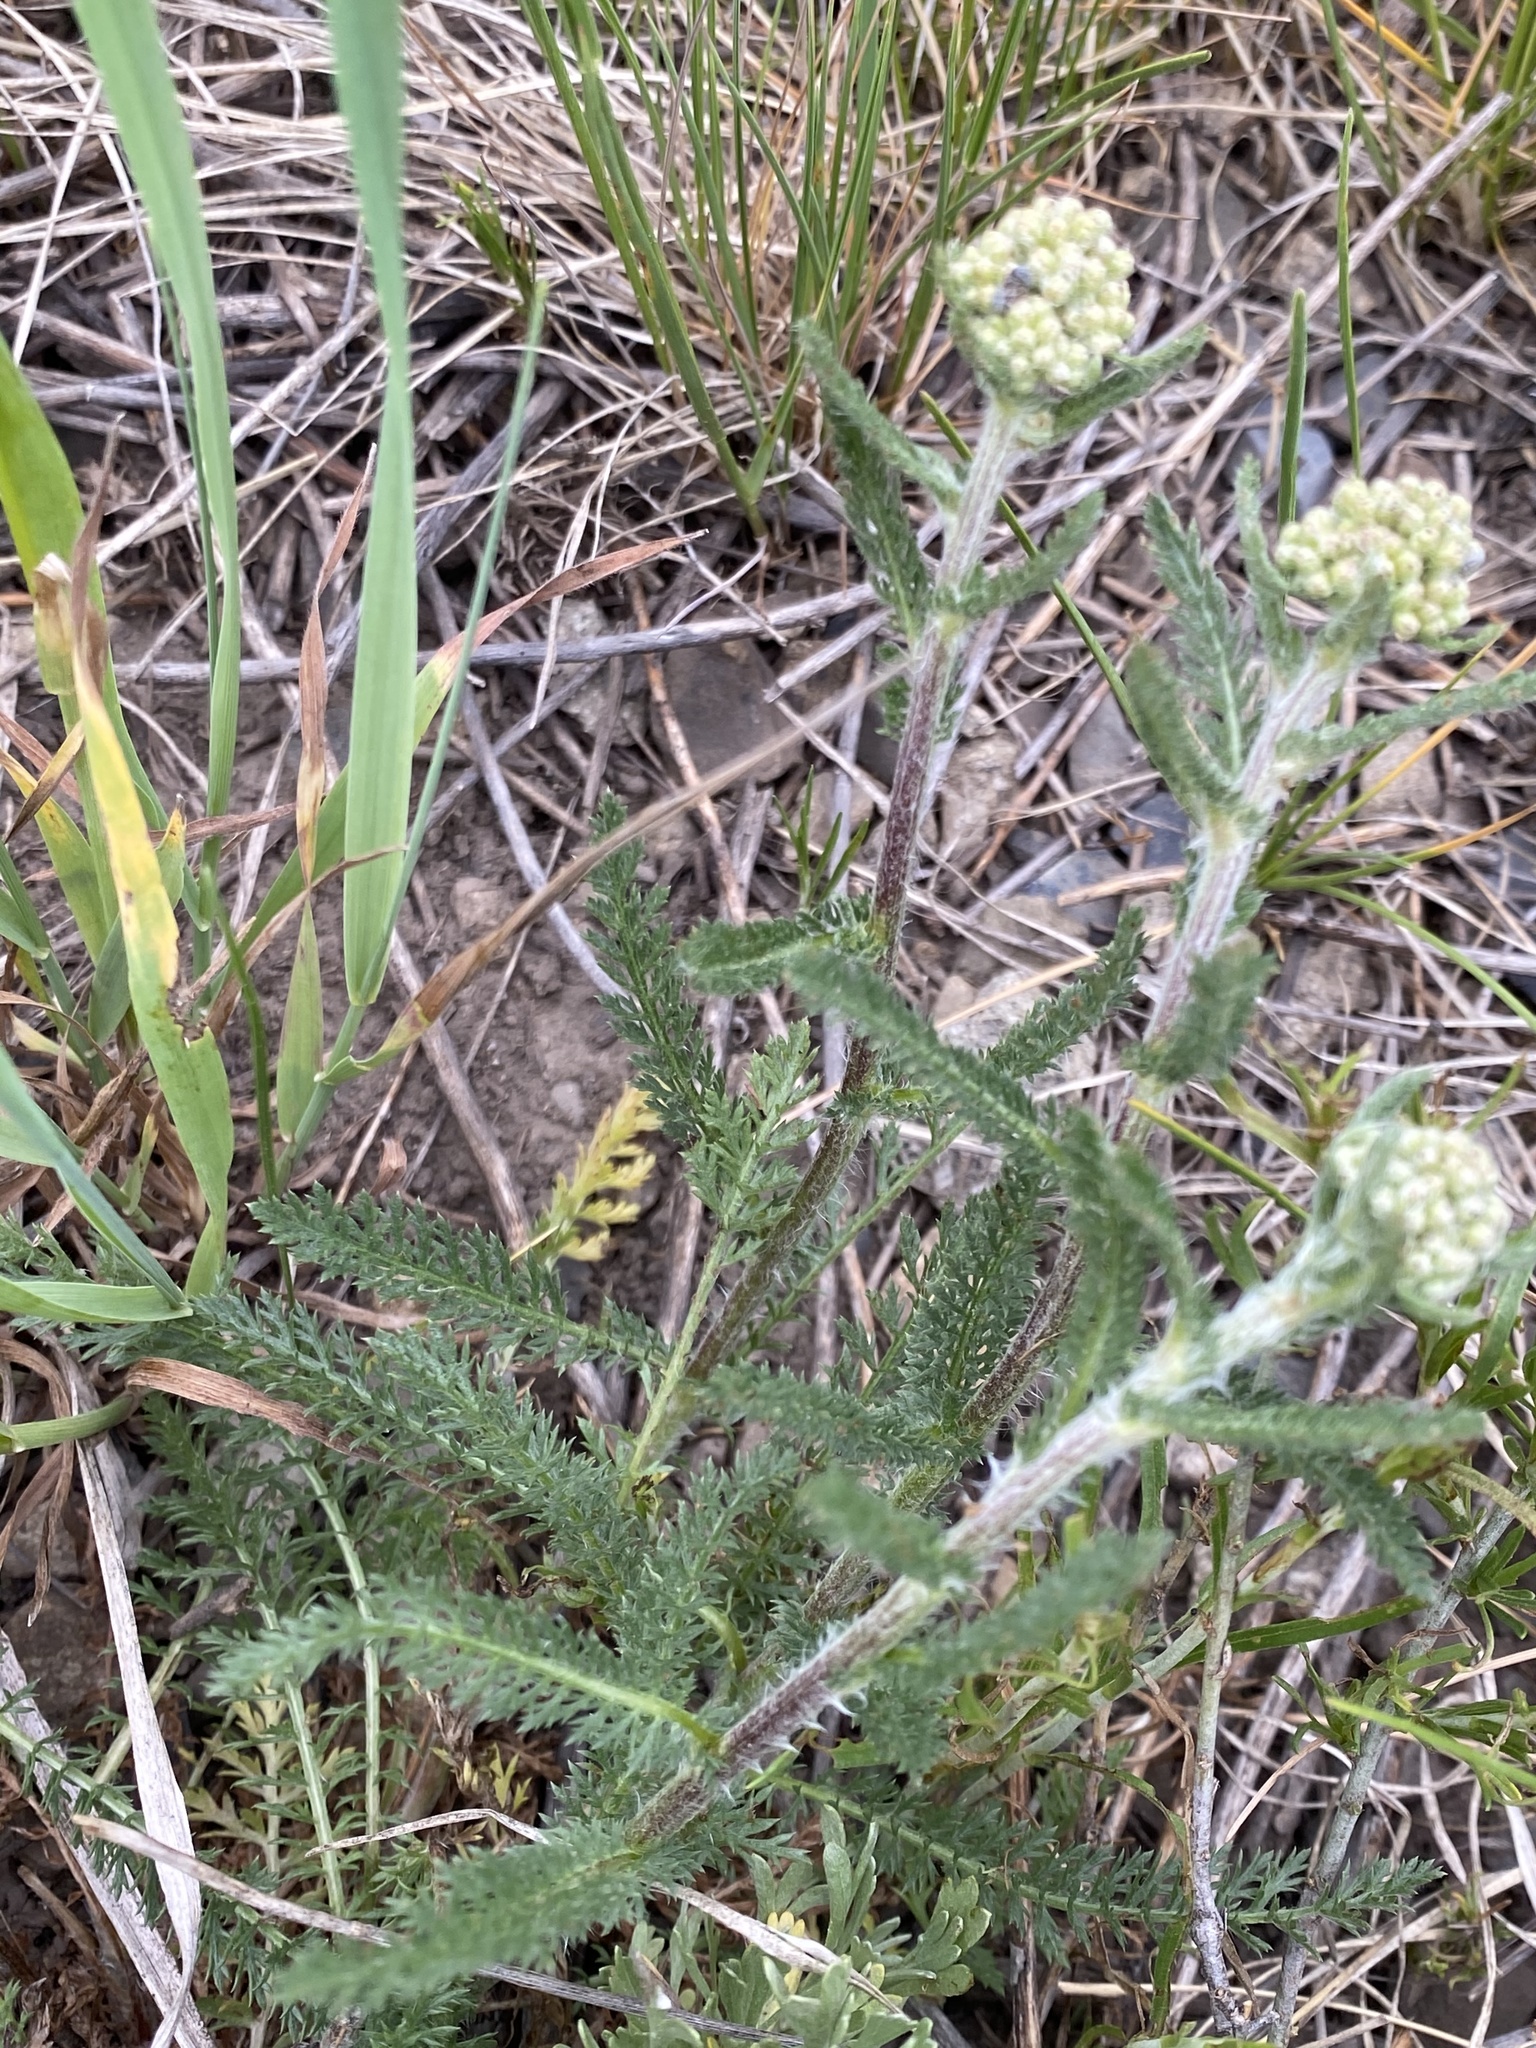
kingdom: Plantae
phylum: Tracheophyta
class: Magnoliopsida
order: Asterales
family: Asteraceae
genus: Achillea
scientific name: Achillea millefolium
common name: Yarrow
